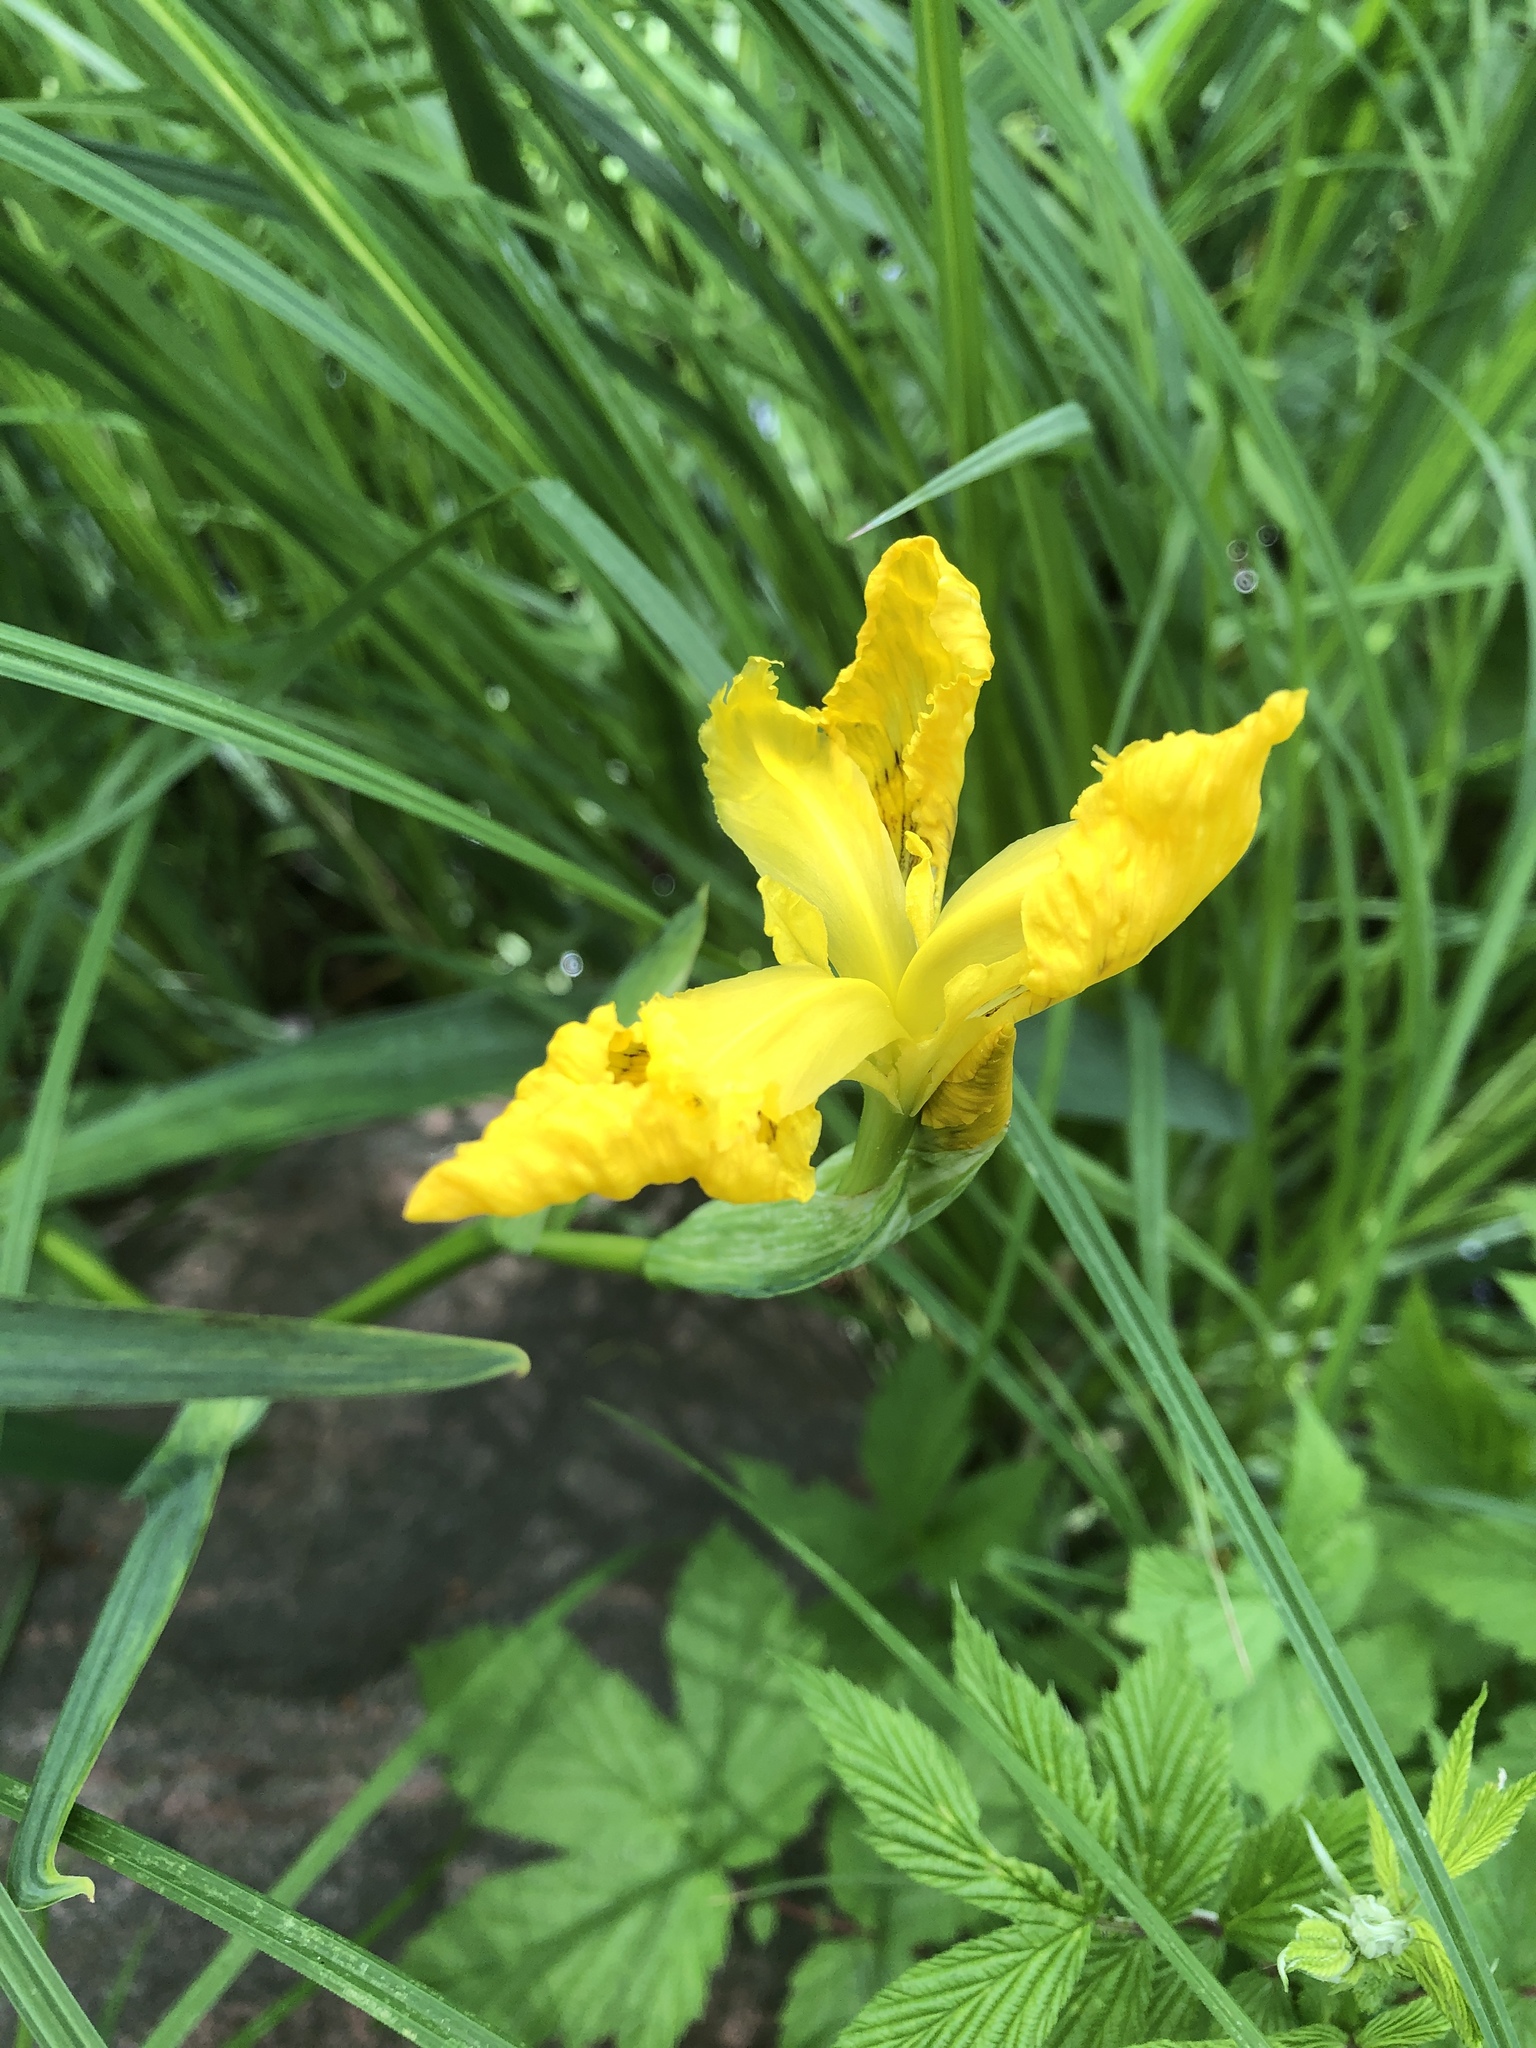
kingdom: Plantae
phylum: Tracheophyta
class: Liliopsida
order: Asparagales
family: Iridaceae
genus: Iris
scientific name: Iris pseudacorus
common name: Yellow flag
